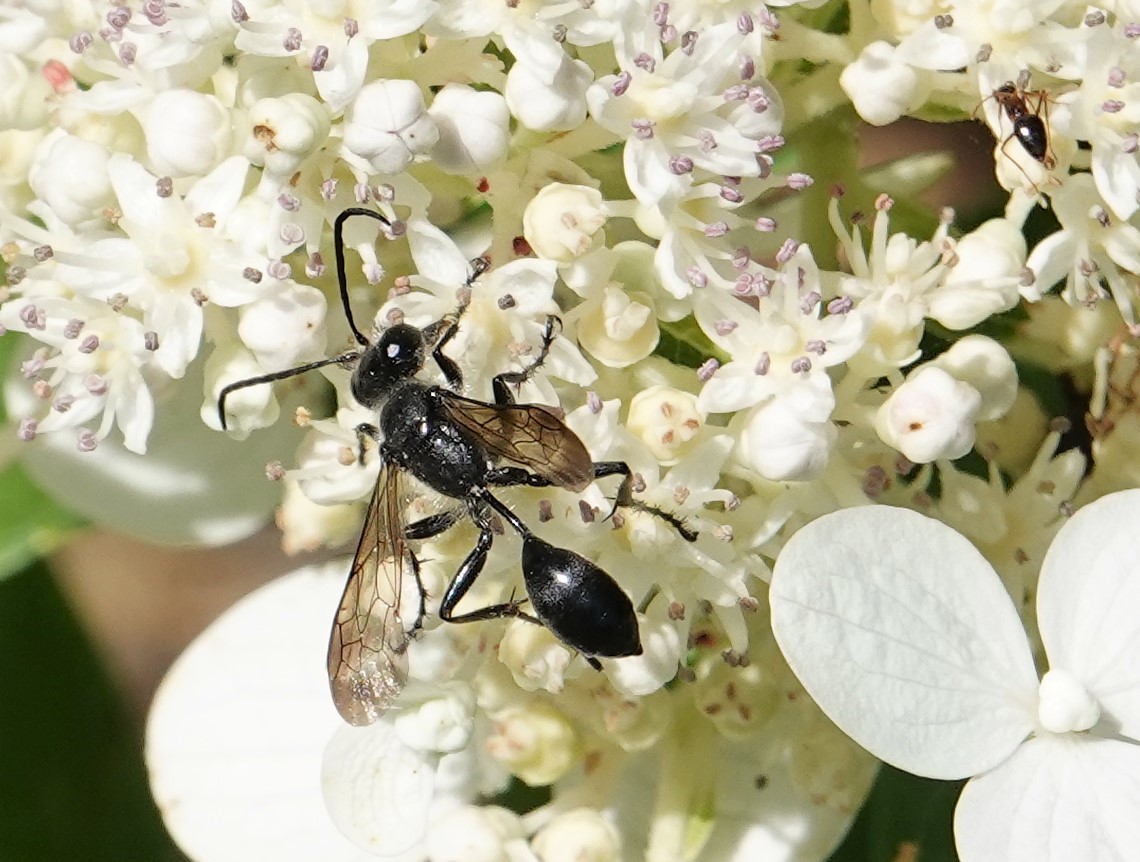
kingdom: Animalia
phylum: Arthropoda
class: Insecta
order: Hymenoptera
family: Sphecidae
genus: Isodontia
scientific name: Isodontia mexicana
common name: Mud dauber
